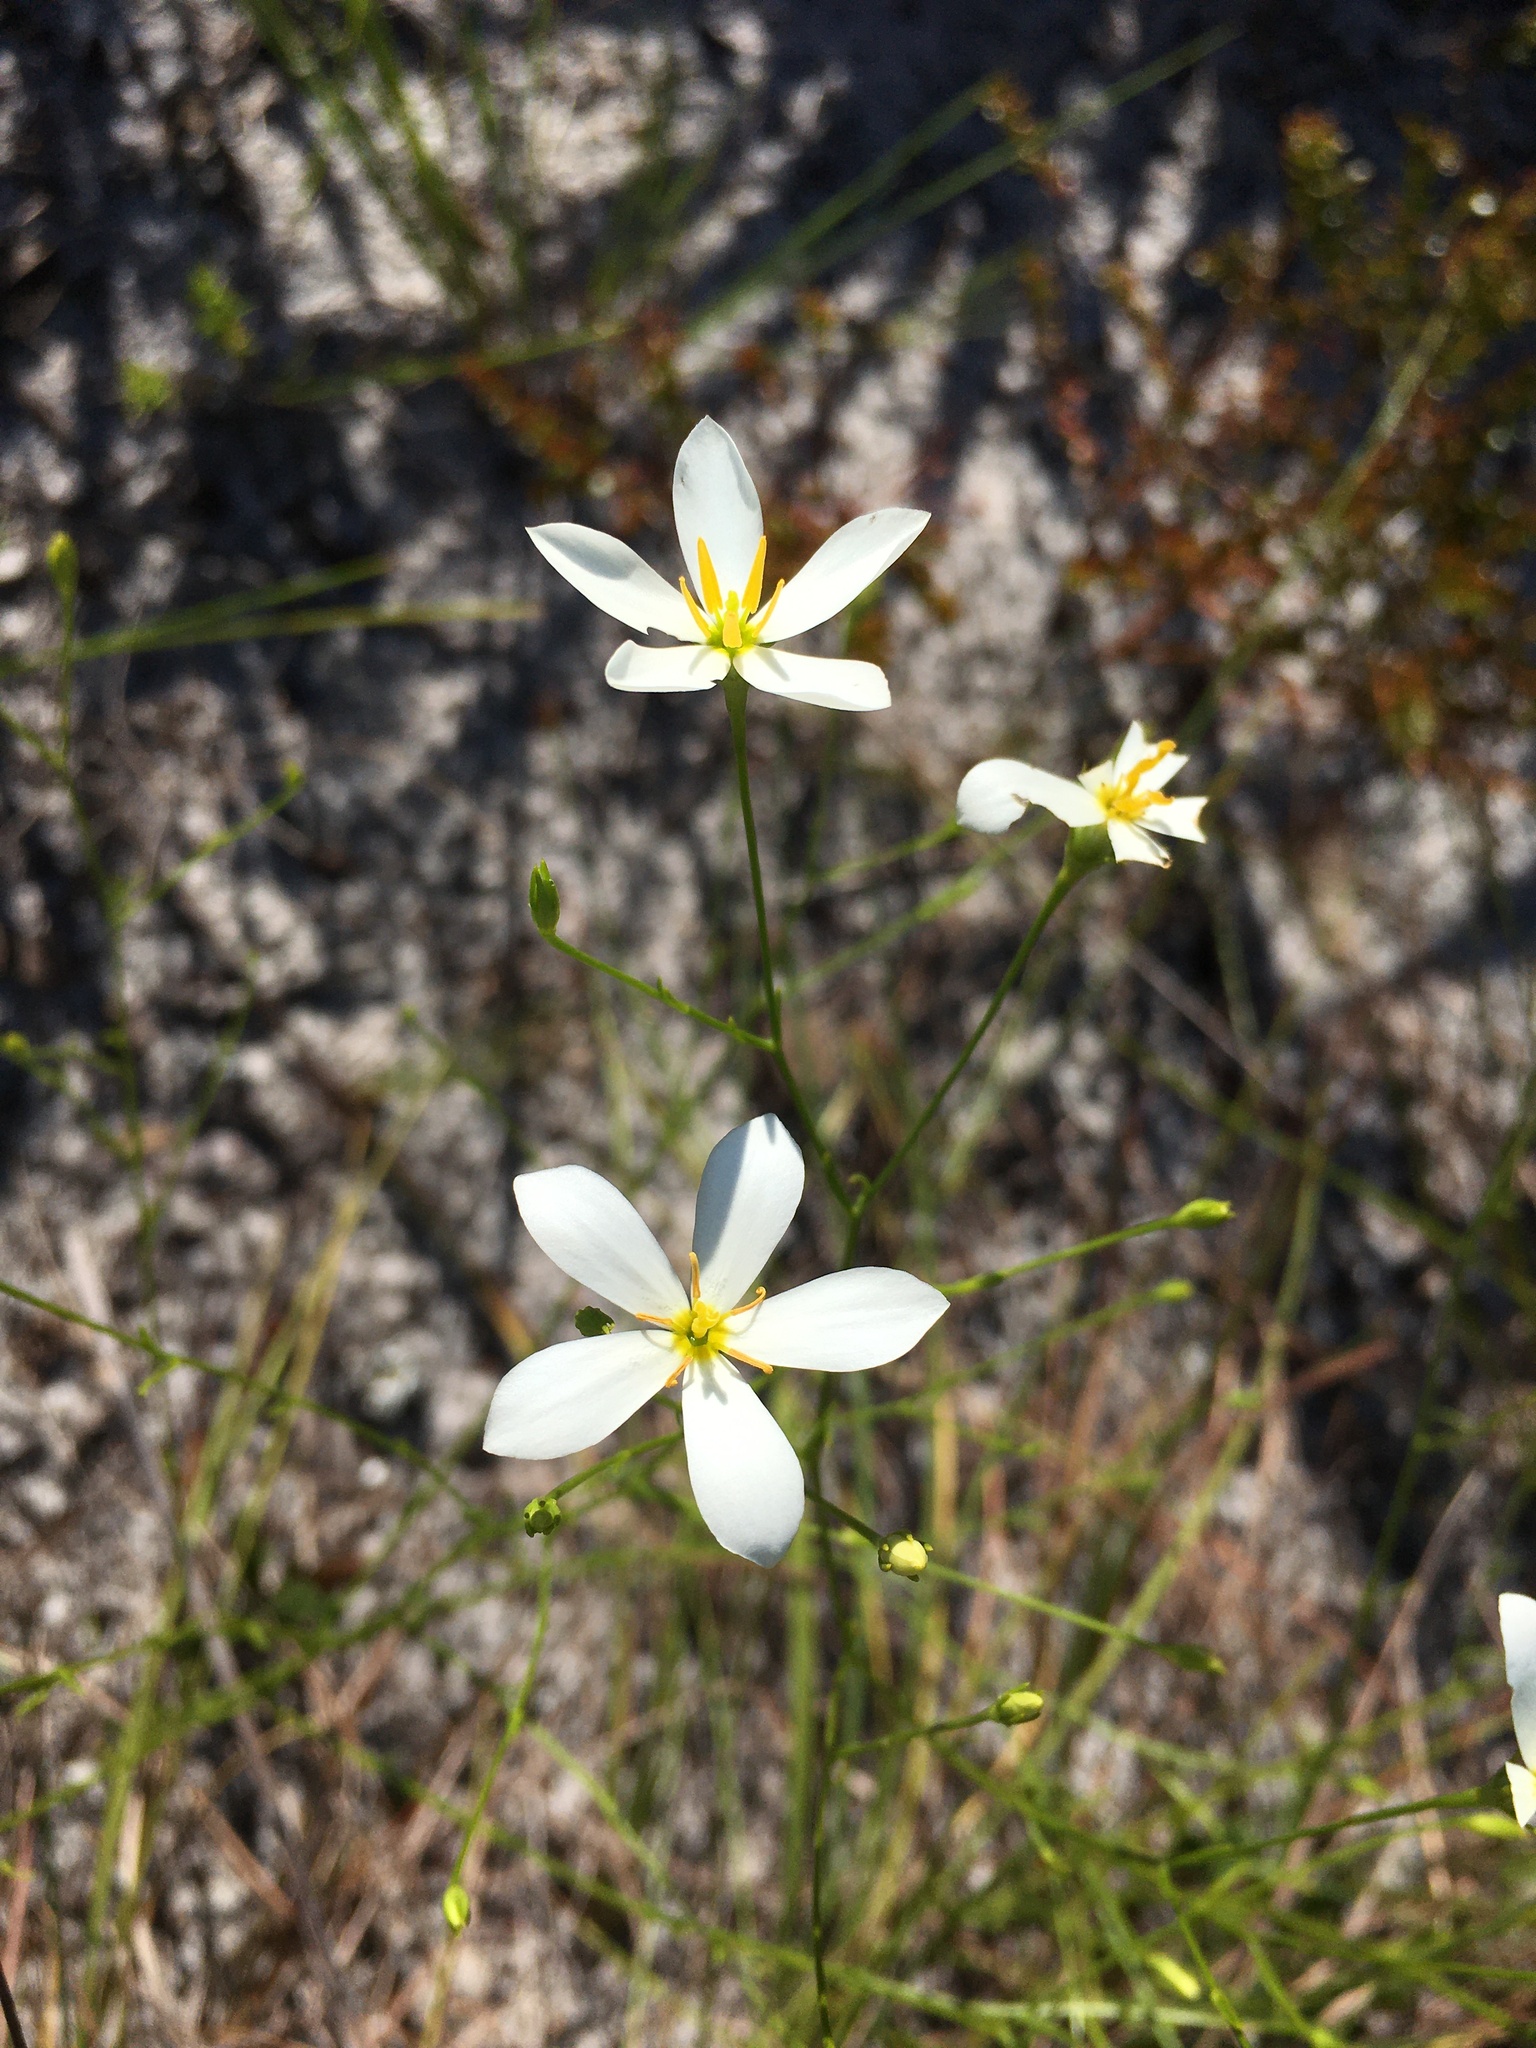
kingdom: Plantae
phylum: Tracheophyta
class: Magnoliopsida
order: Gentianales
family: Gentianaceae
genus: Sabatia
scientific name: Sabatia brevifolia
